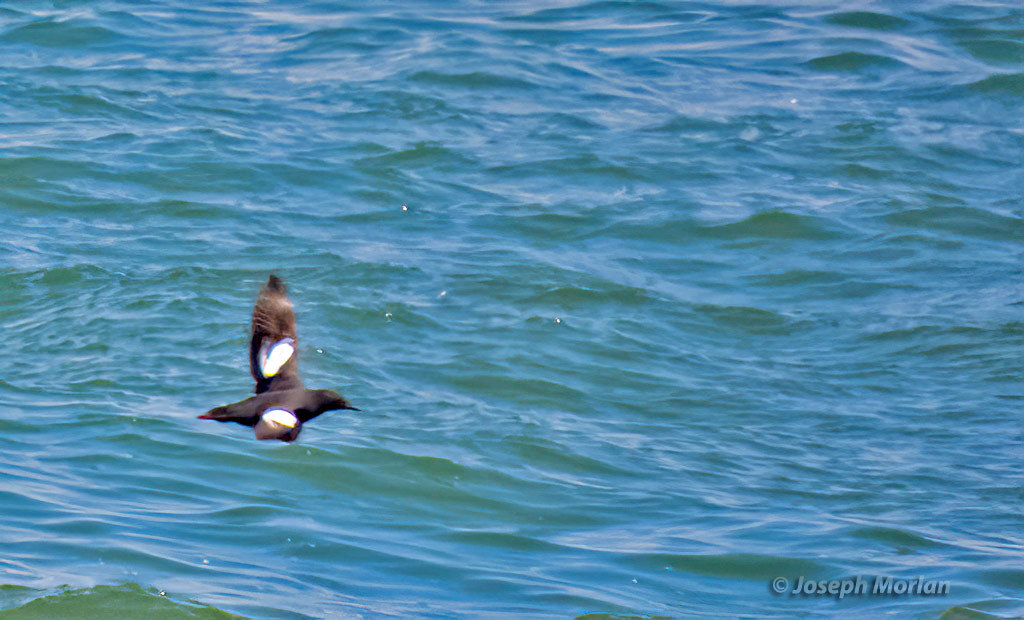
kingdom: Animalia
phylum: Chordata
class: Aves
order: Charadriiformes
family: Alcidae
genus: Cepphus
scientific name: Cepphus columba
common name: Pigeon guillemot
